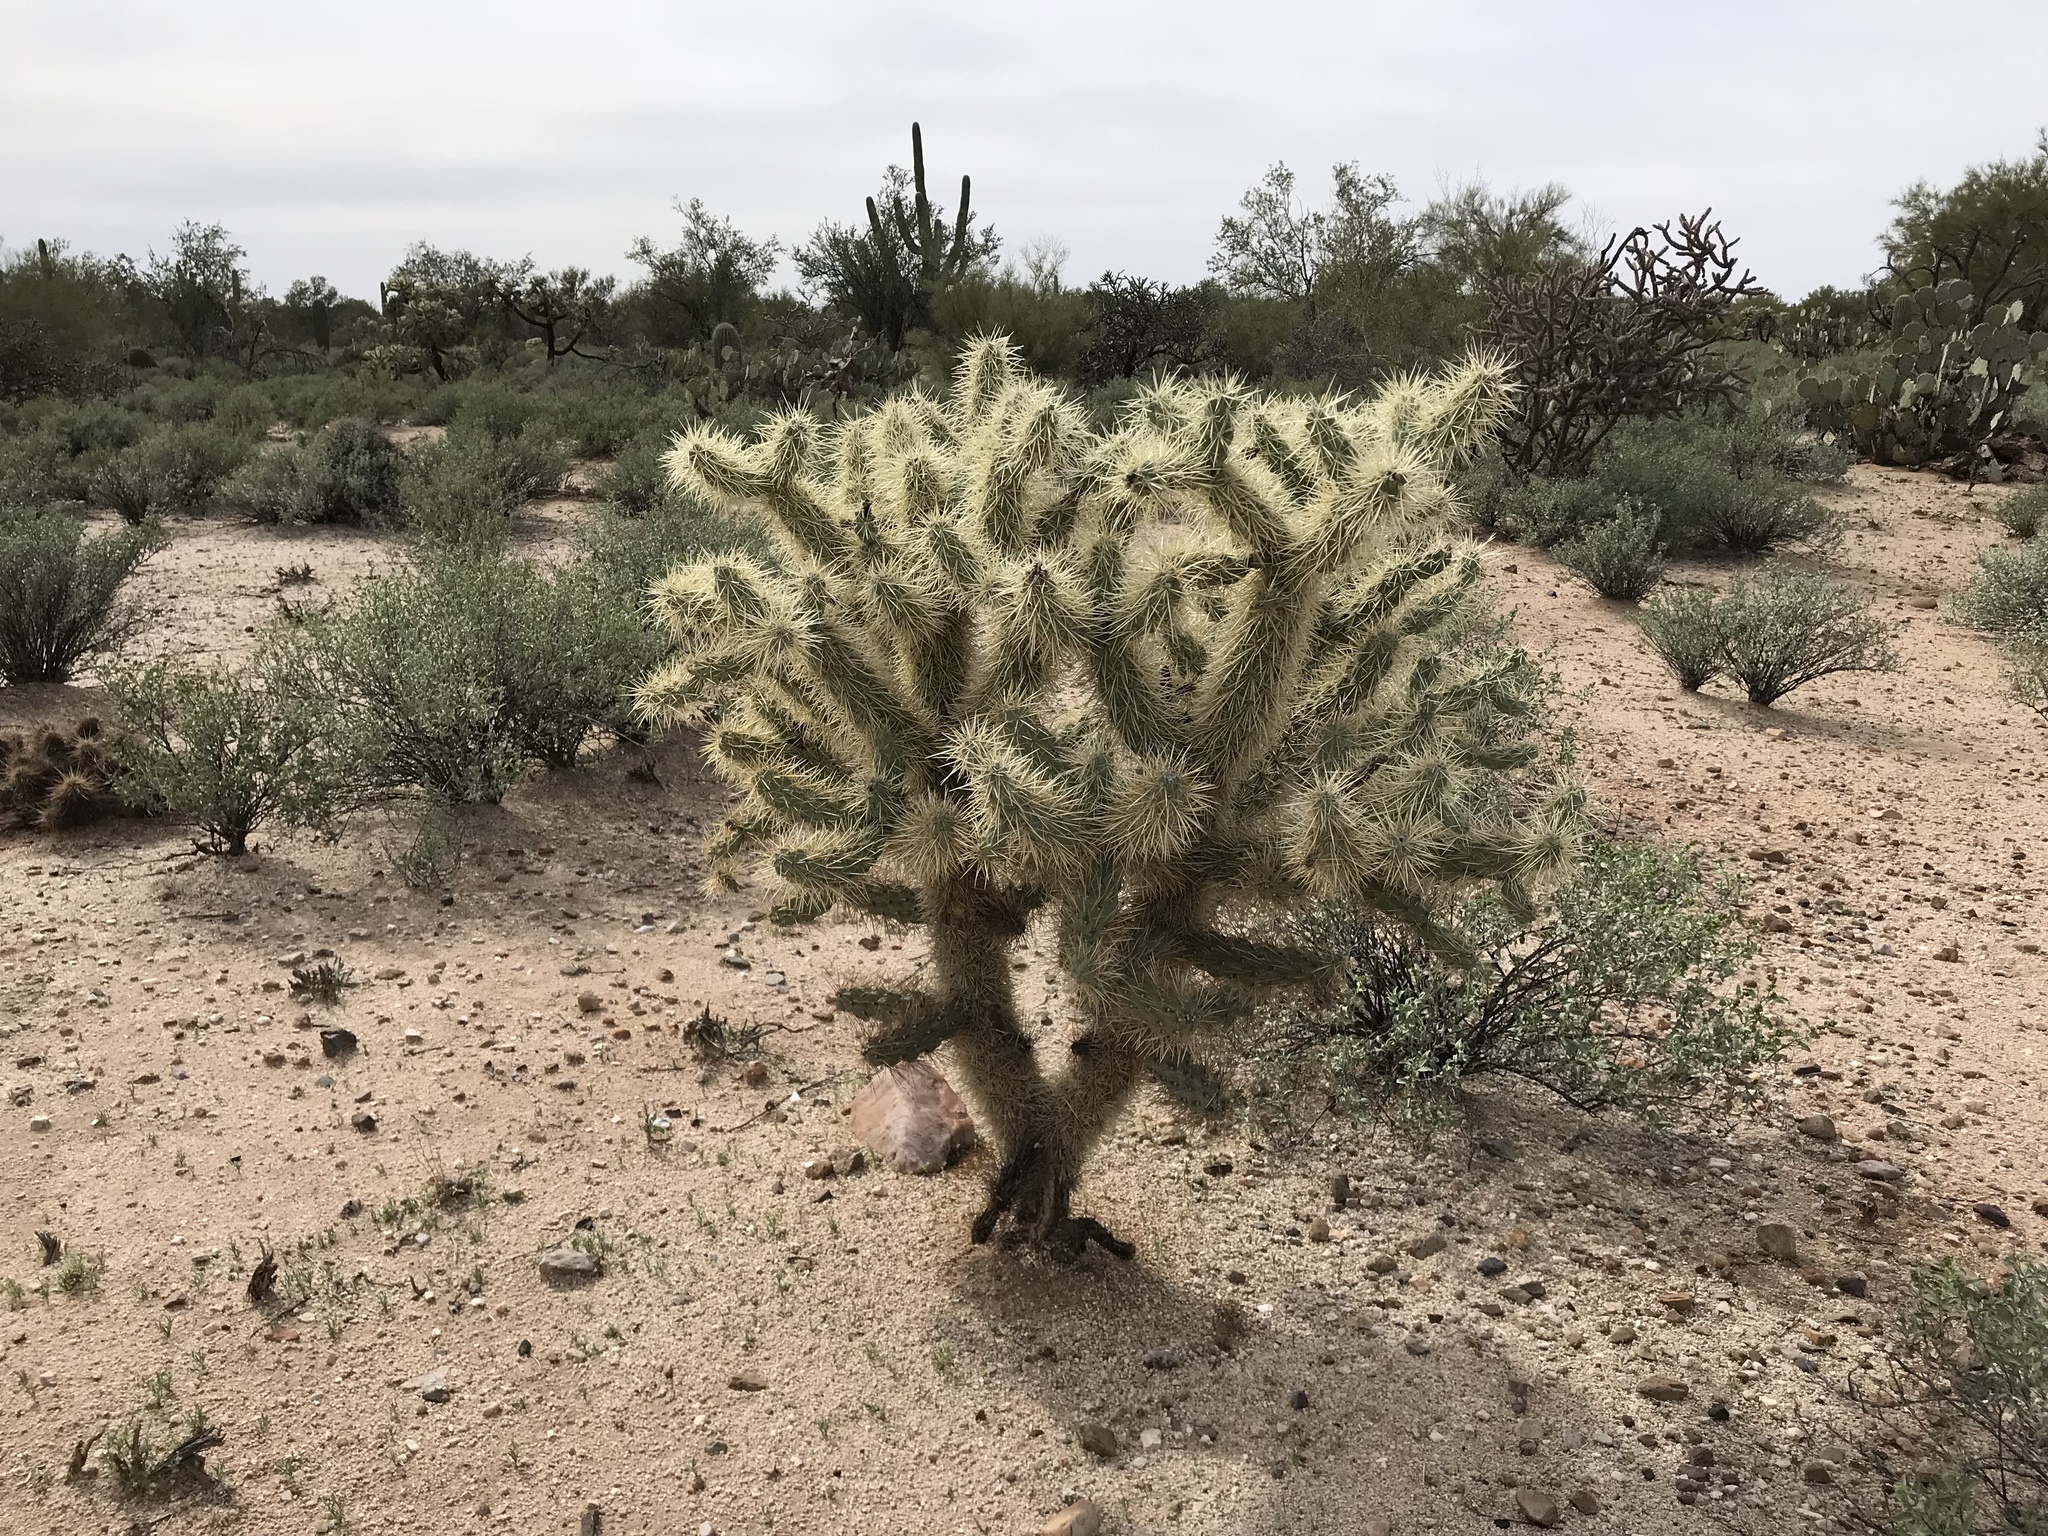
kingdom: Plantae
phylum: Tracheophyta
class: Magnoliopsida
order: Caryophyllales
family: Cactaceae
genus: Cylindropuntia
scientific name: Cylindropuntia fulgida
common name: Jumping cholla
